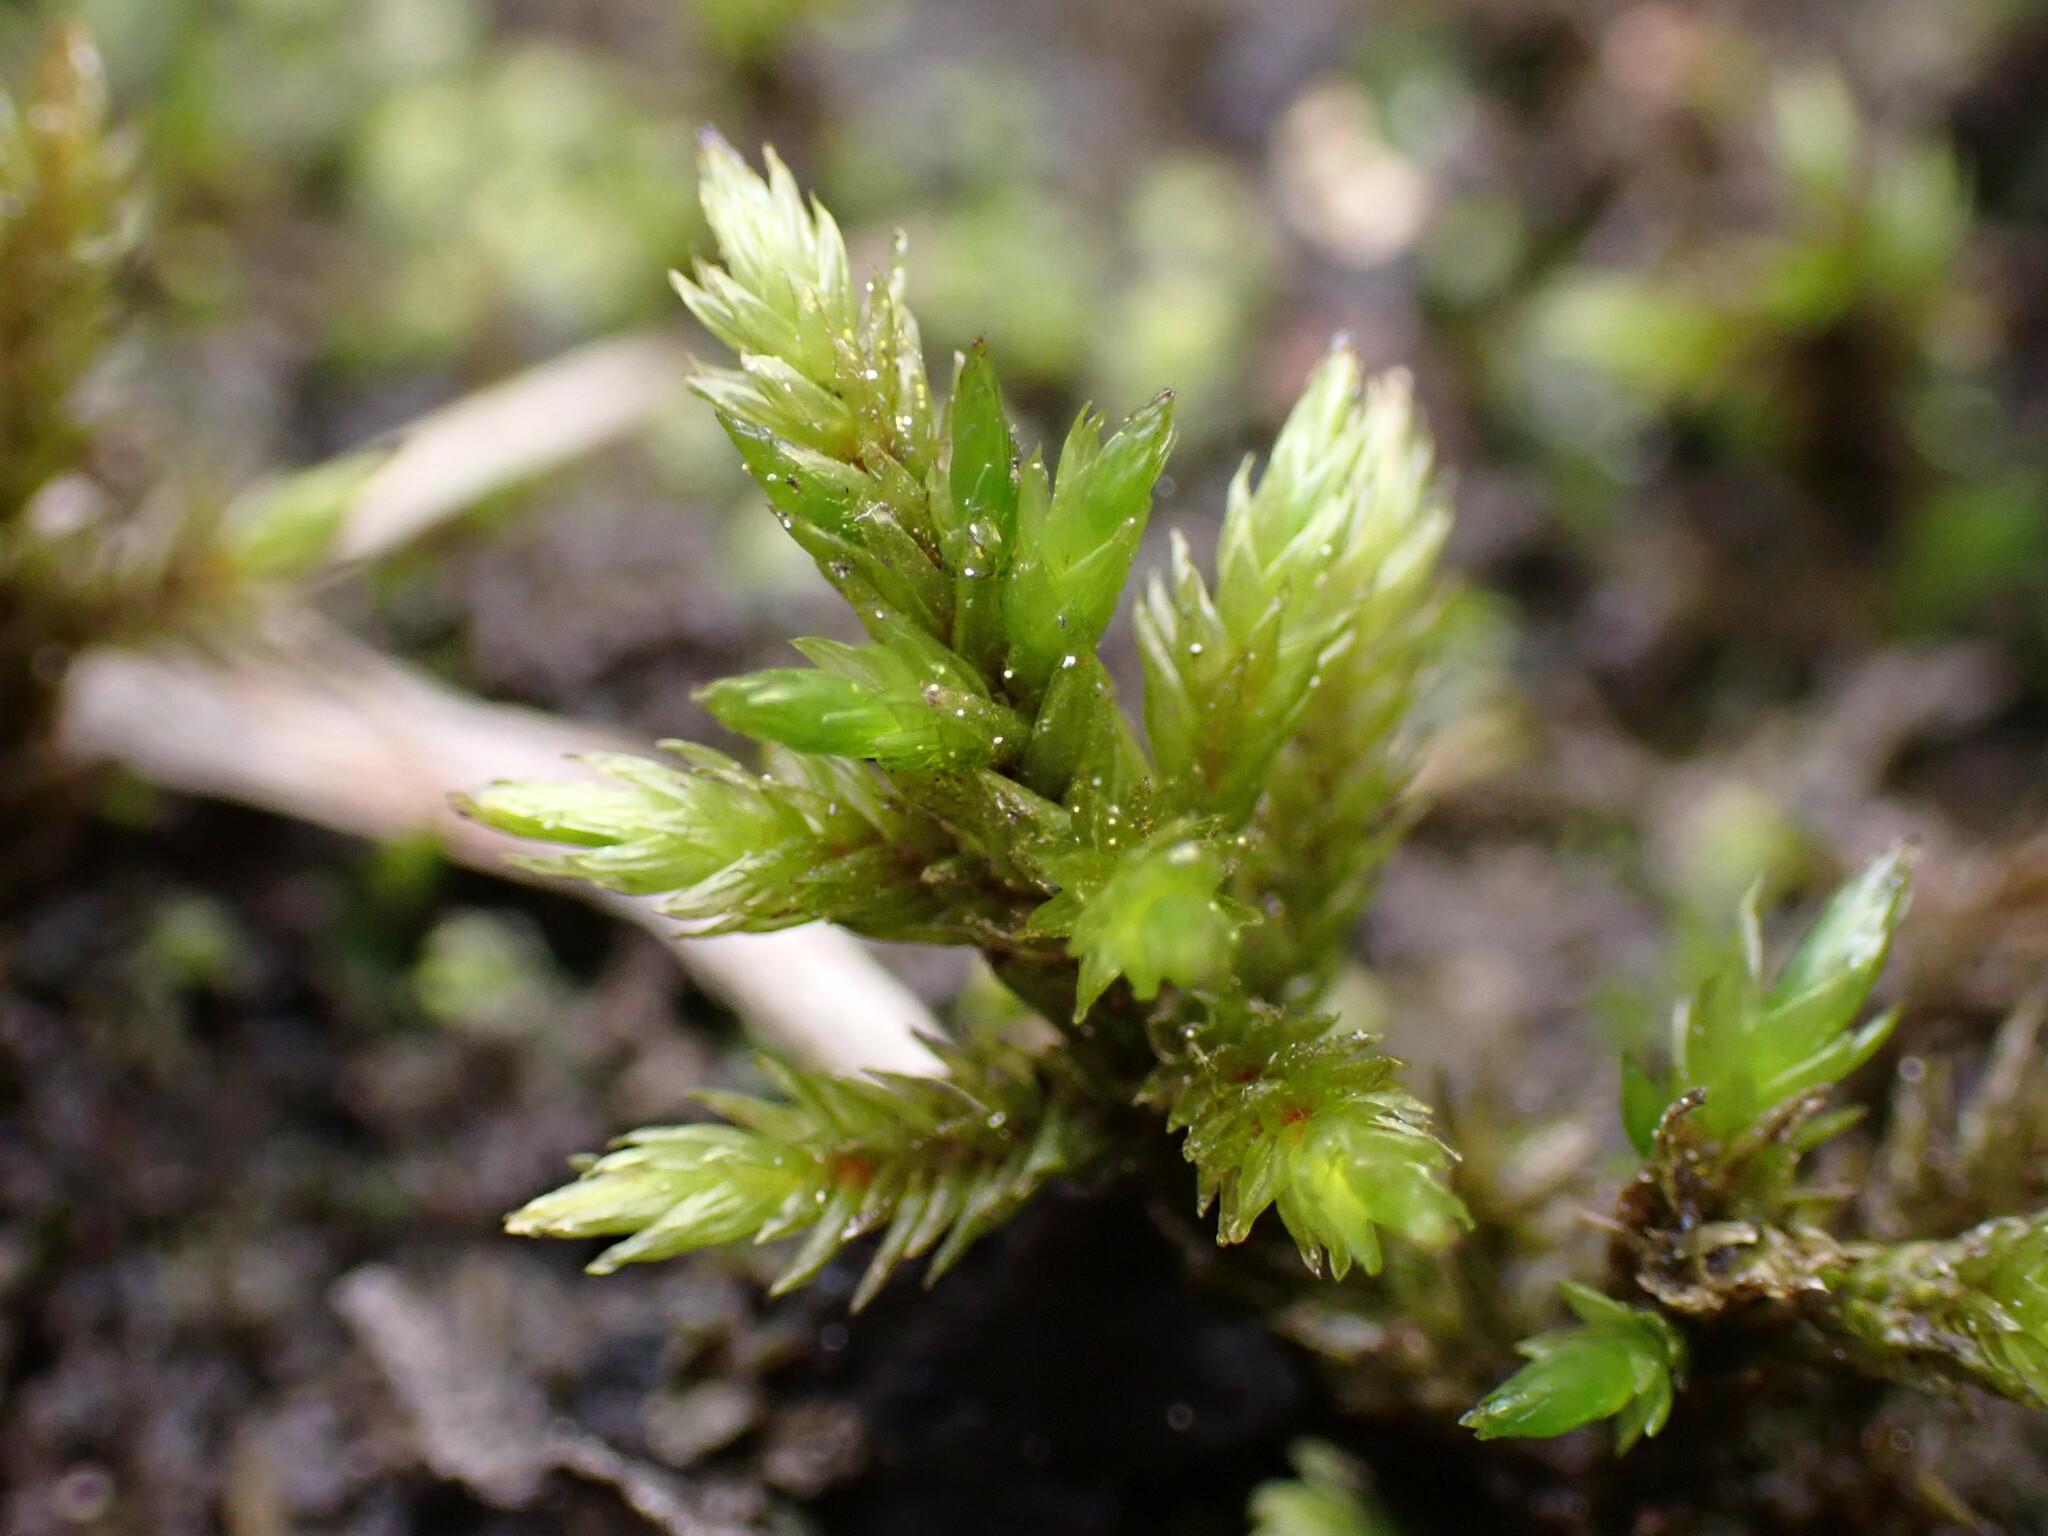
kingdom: Plantae
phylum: Bryophyta
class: Bryopsida
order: Hypnales
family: Climaciaceae
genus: Climacium
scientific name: Climacium dendroides
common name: Northern tree moss
